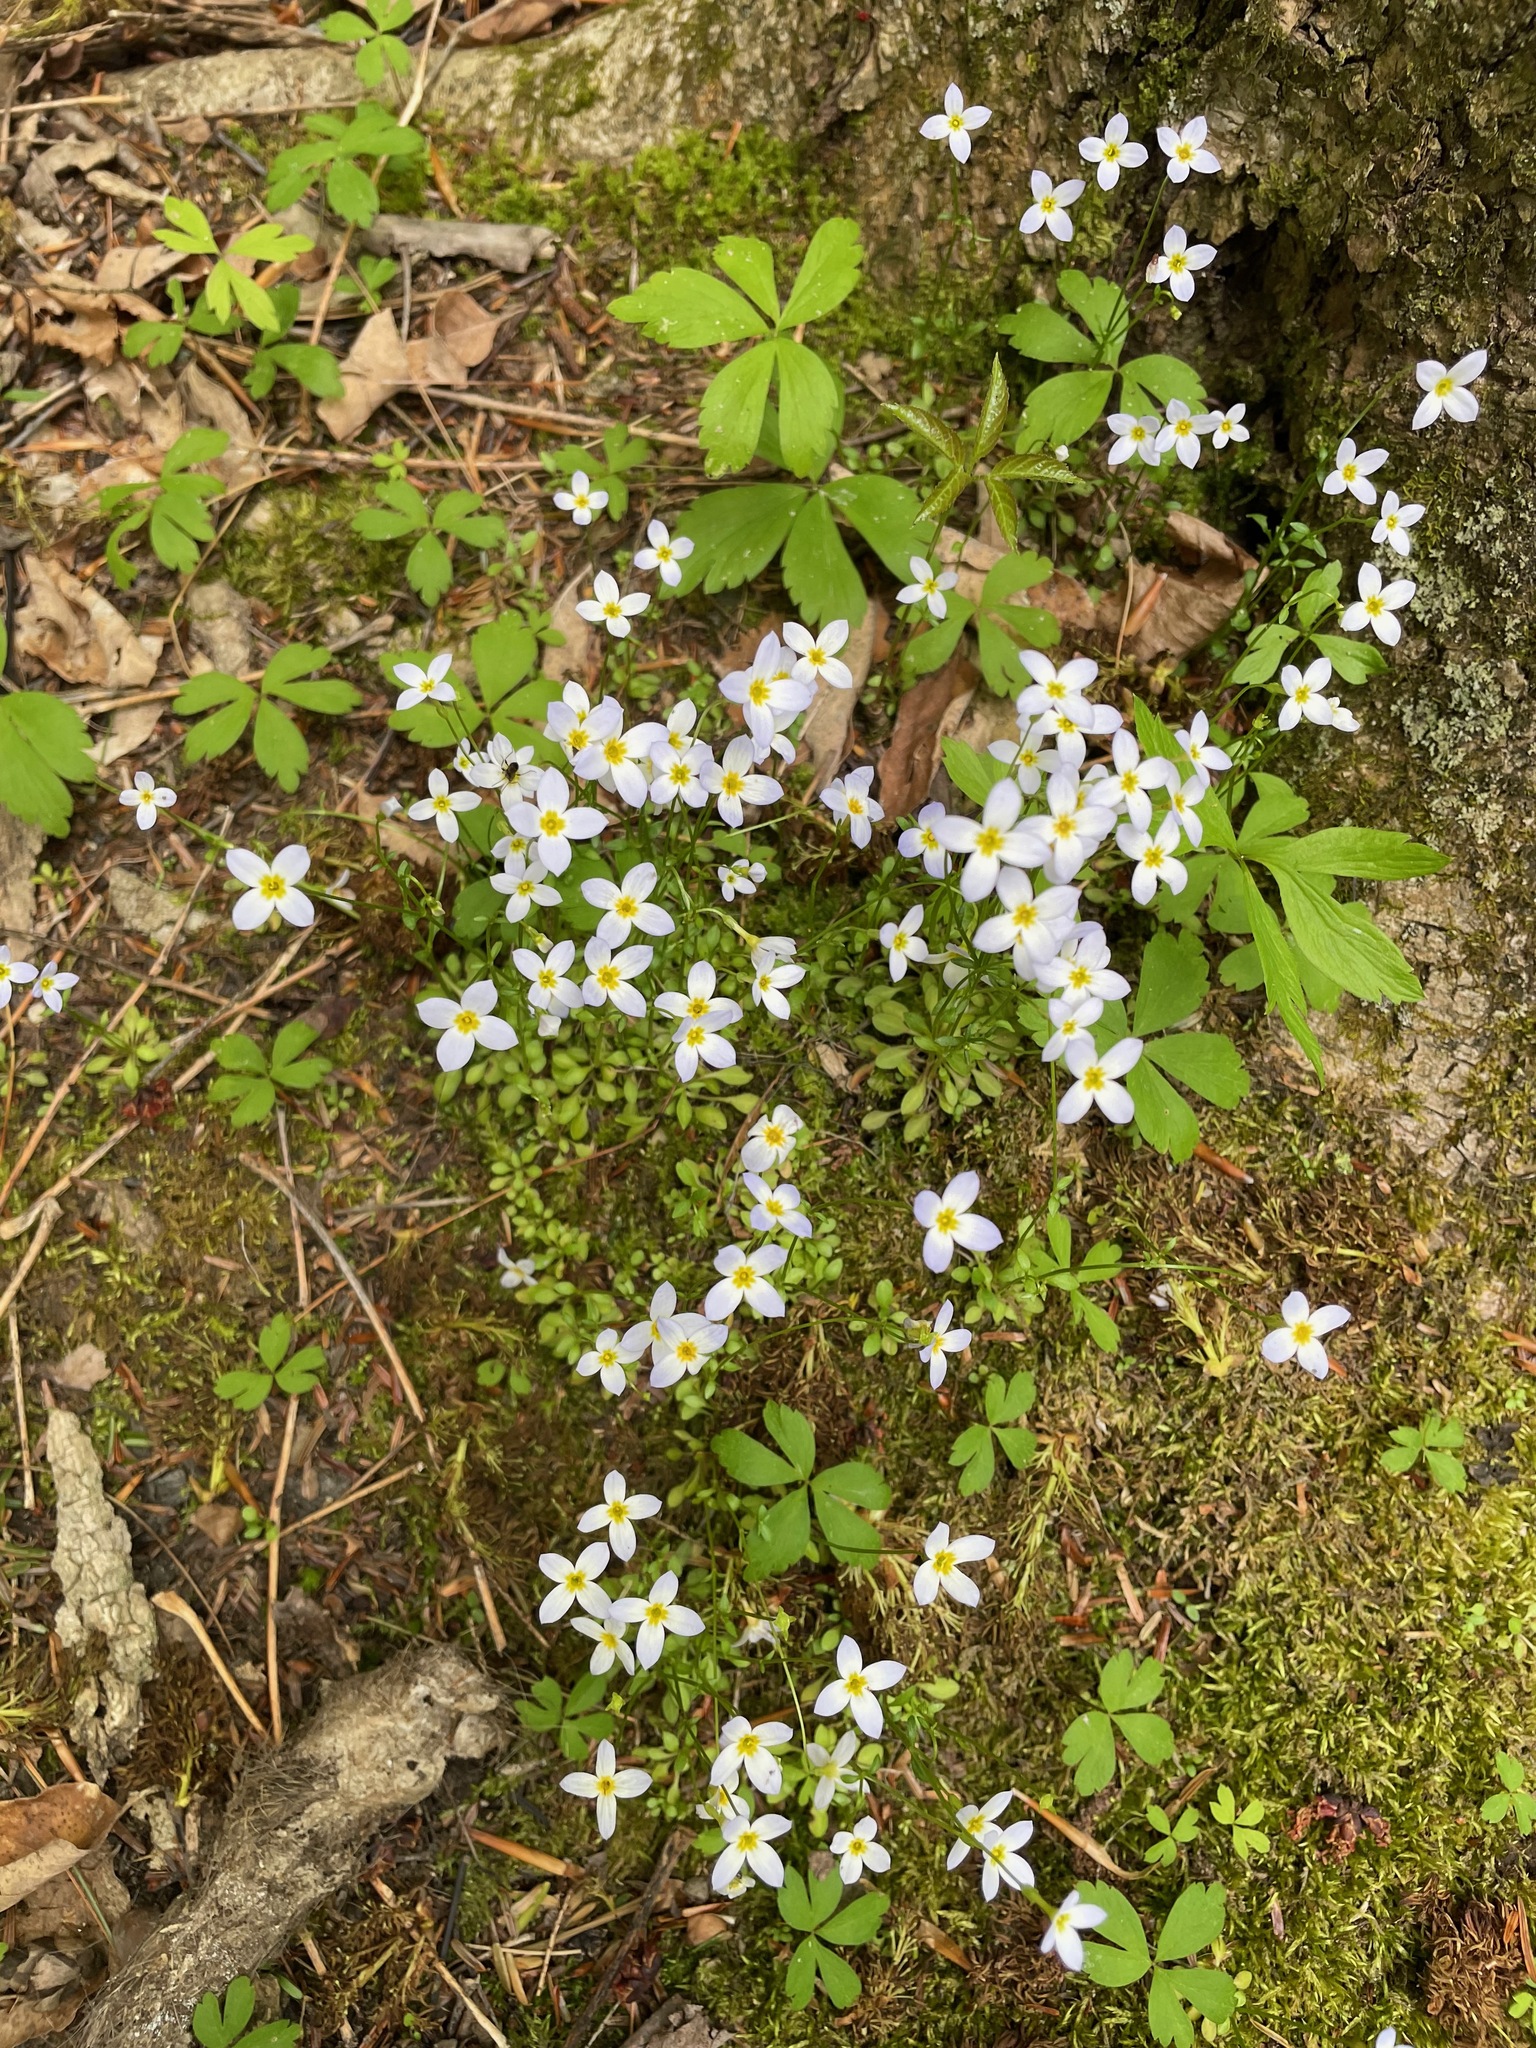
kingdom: Plantae
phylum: Tracheophyta
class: Magnoliopsida
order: Gentianales
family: Rubiaceae
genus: Houstonia
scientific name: Houstonia caerulea
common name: Bluets
